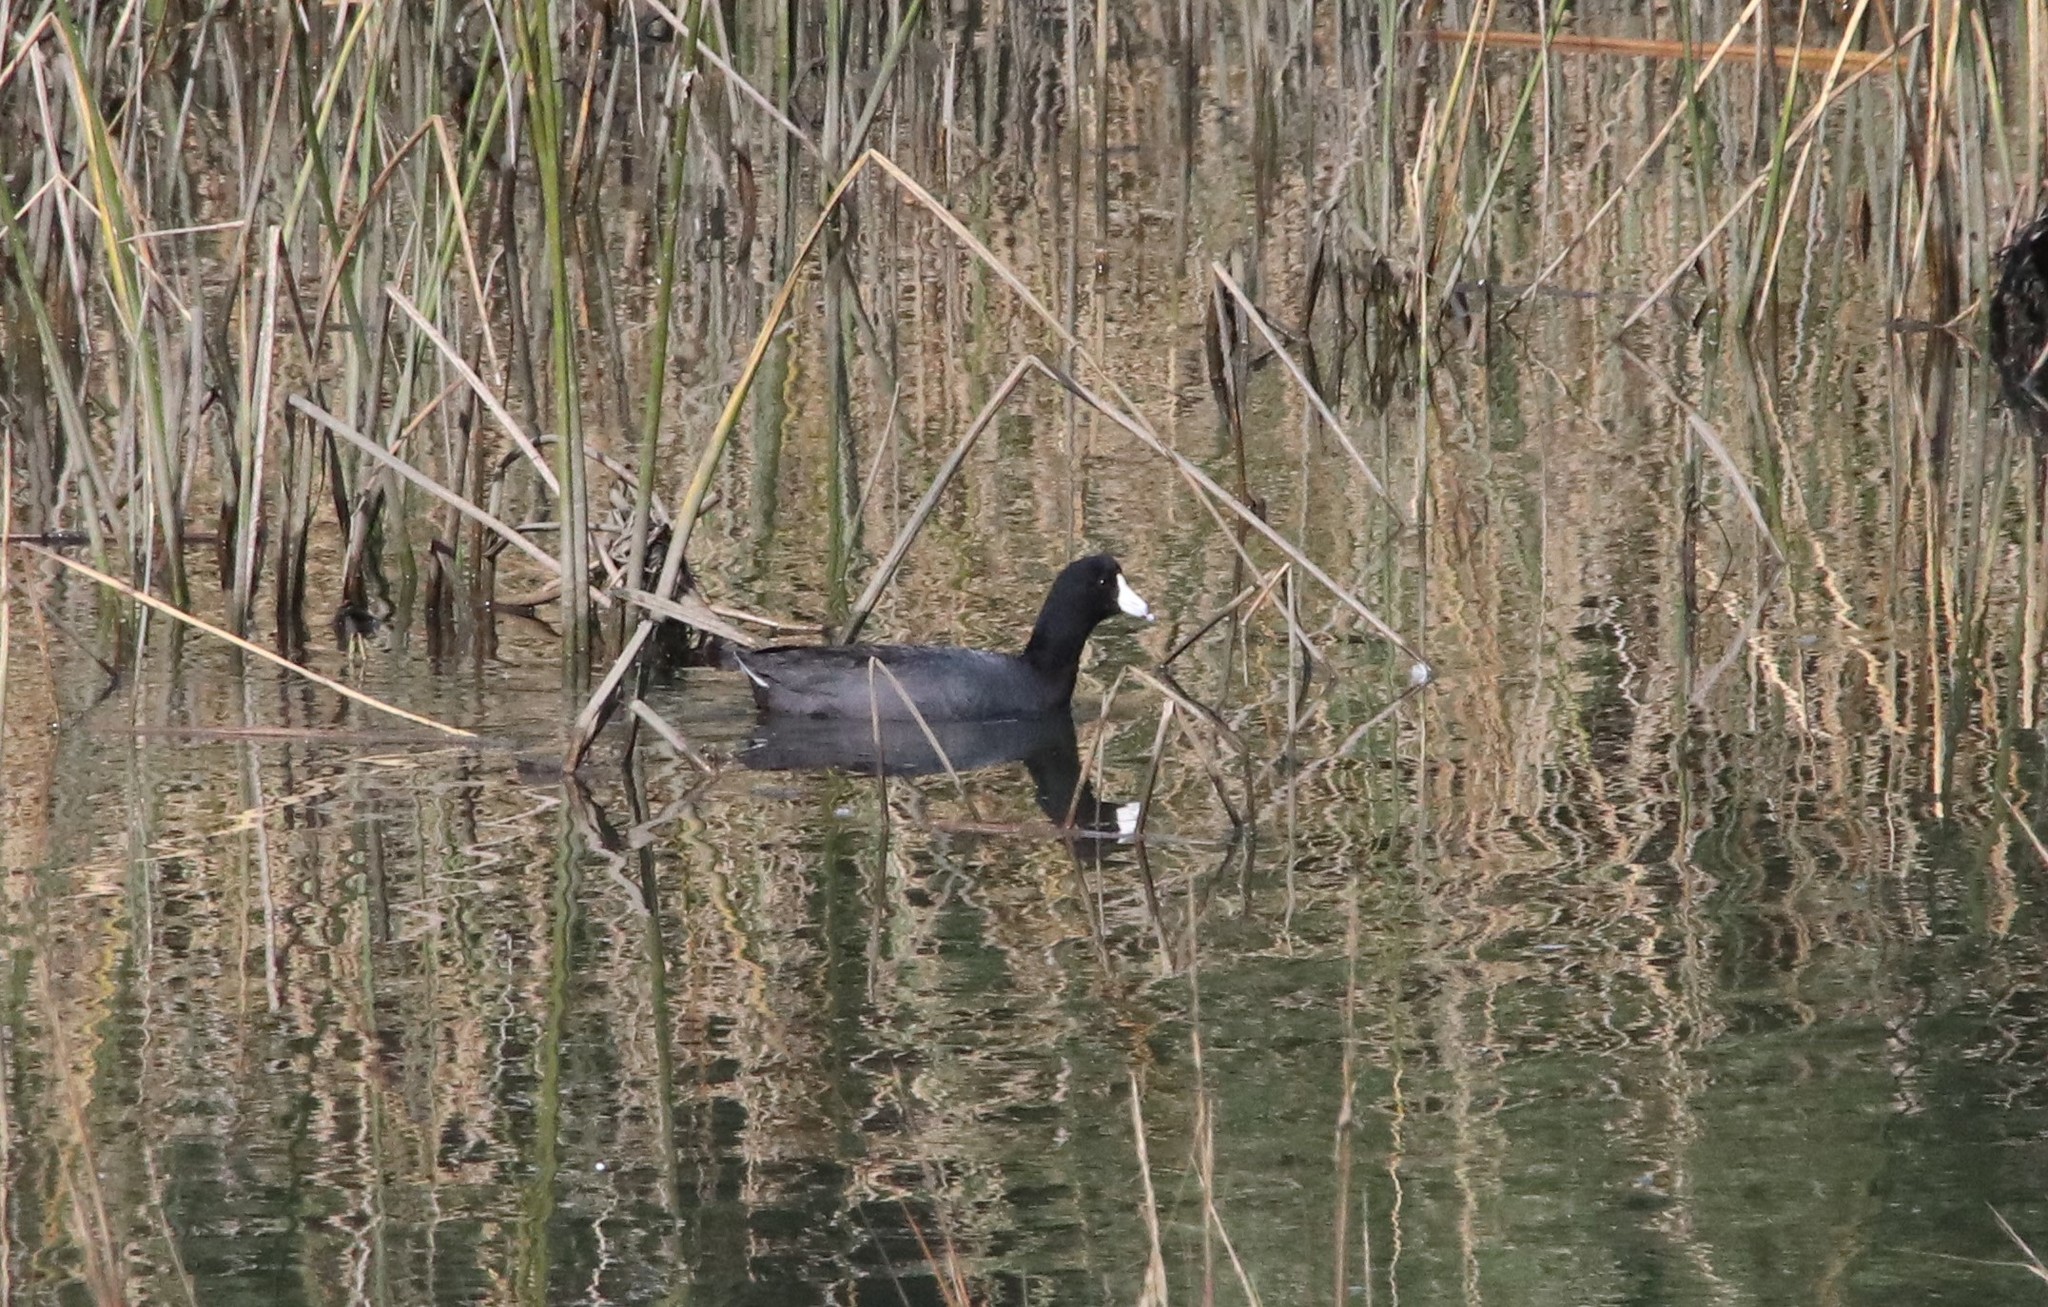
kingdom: Animalia
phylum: Chordata
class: Aves
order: Gruiformes
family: Rallidae
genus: Fulica
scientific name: Fulica americana
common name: American coot
